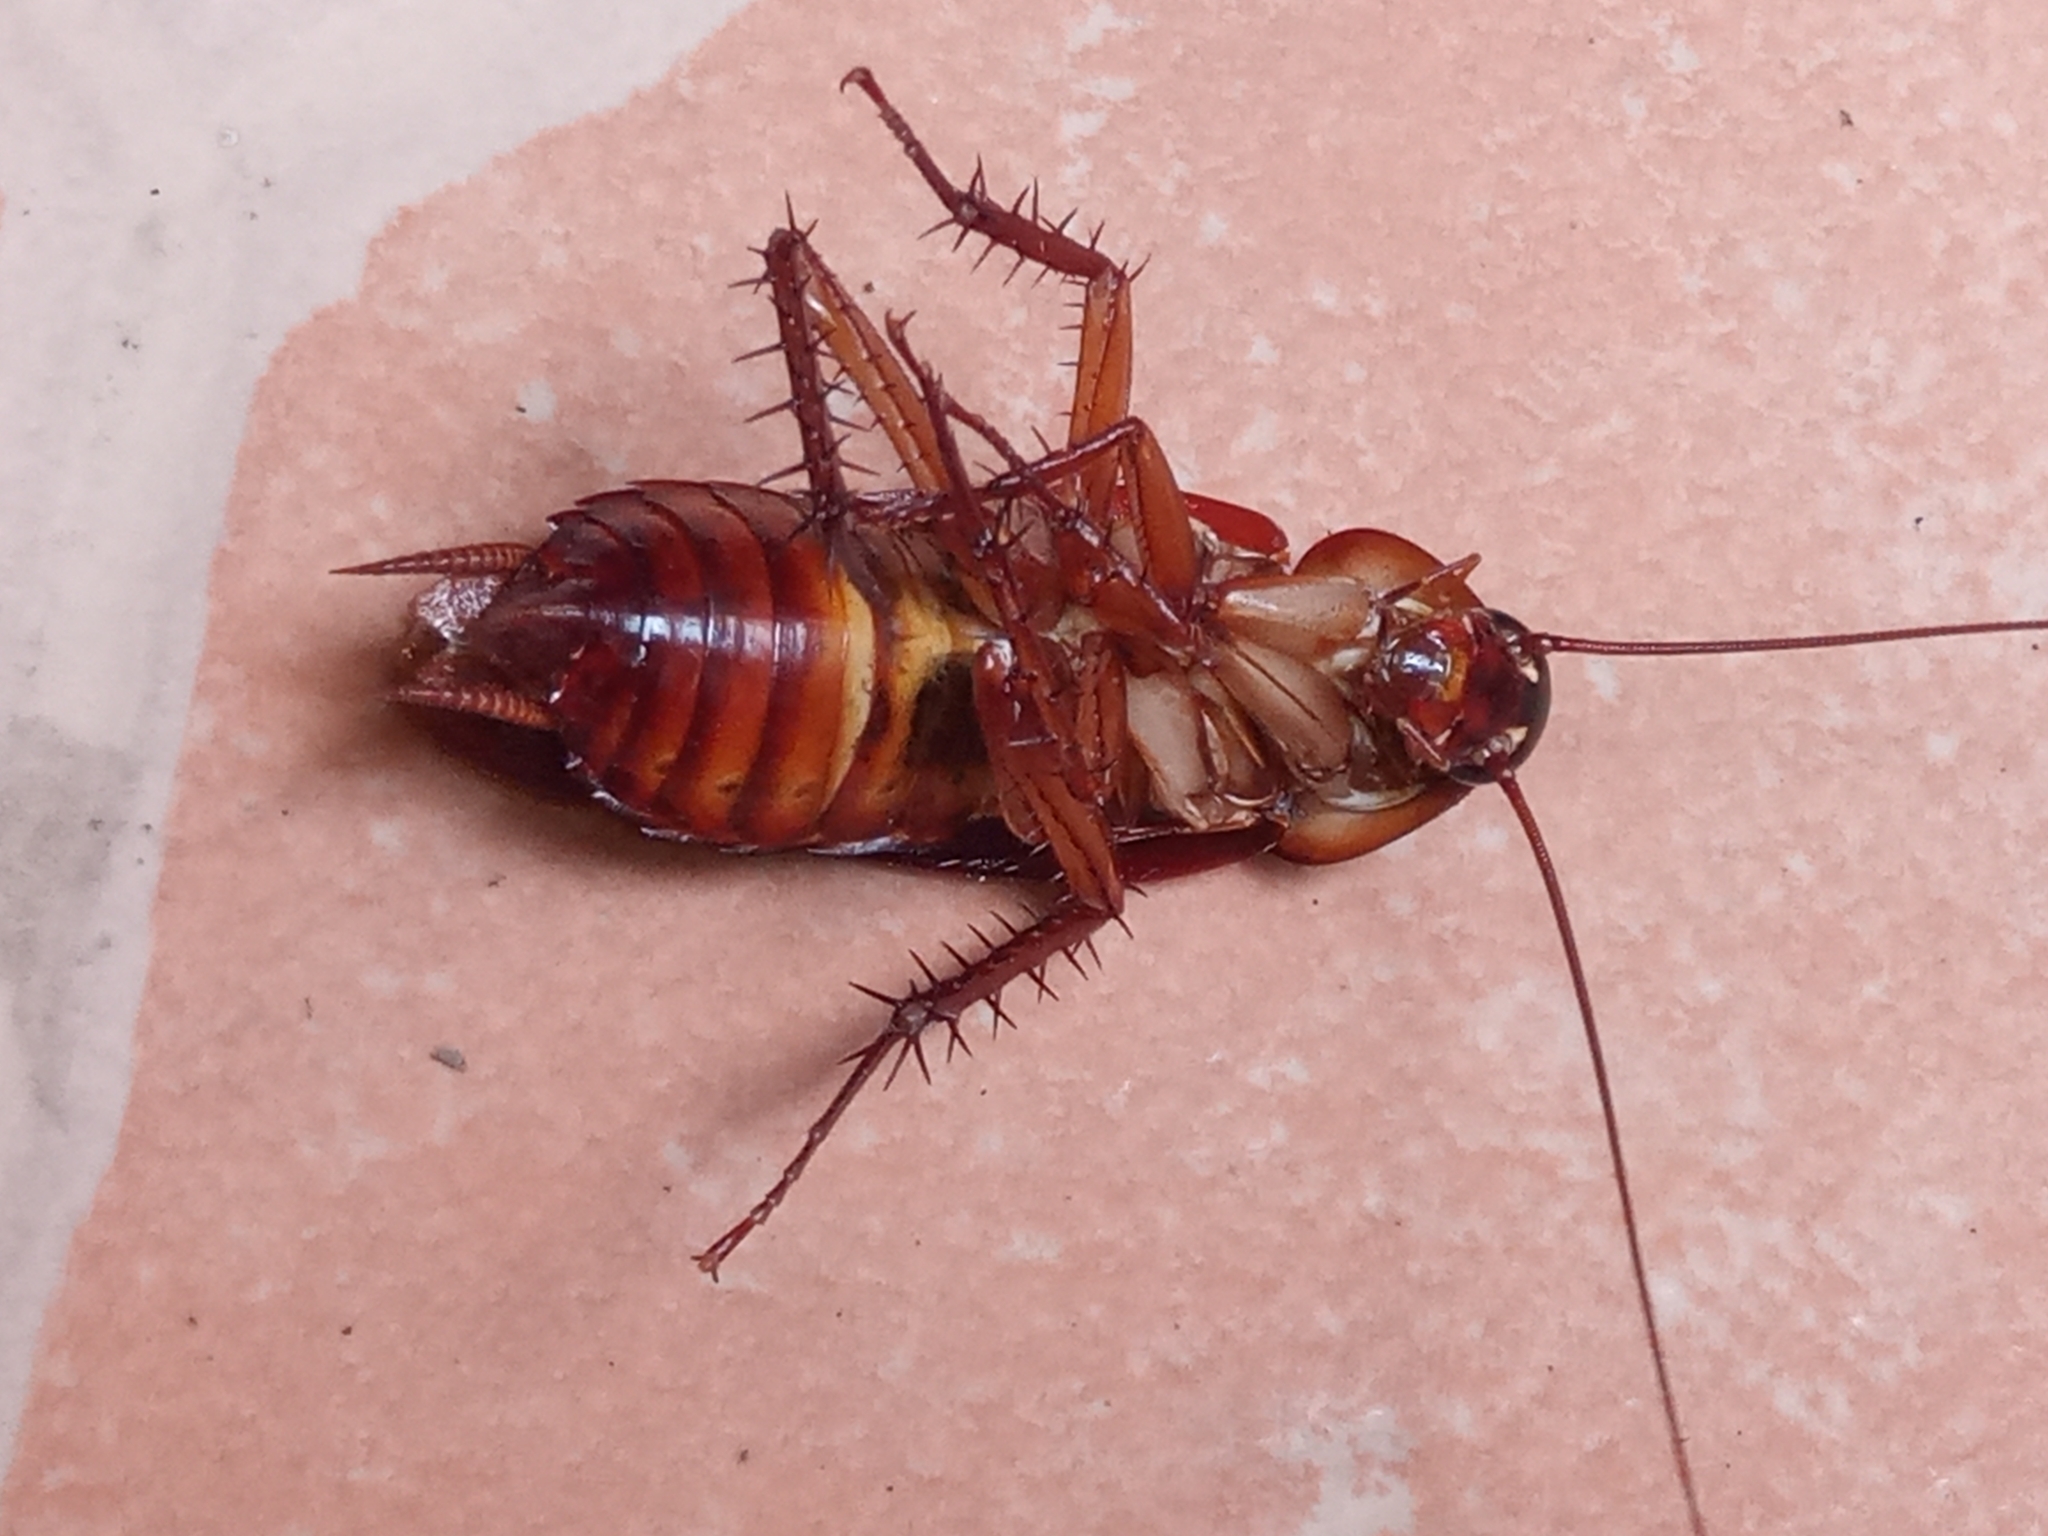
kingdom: Animalia
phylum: Arthropoda
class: Insecta
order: Blattodea
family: Blattidae
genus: Periplaneta
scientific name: Periplaneta americana
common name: American cockroach
